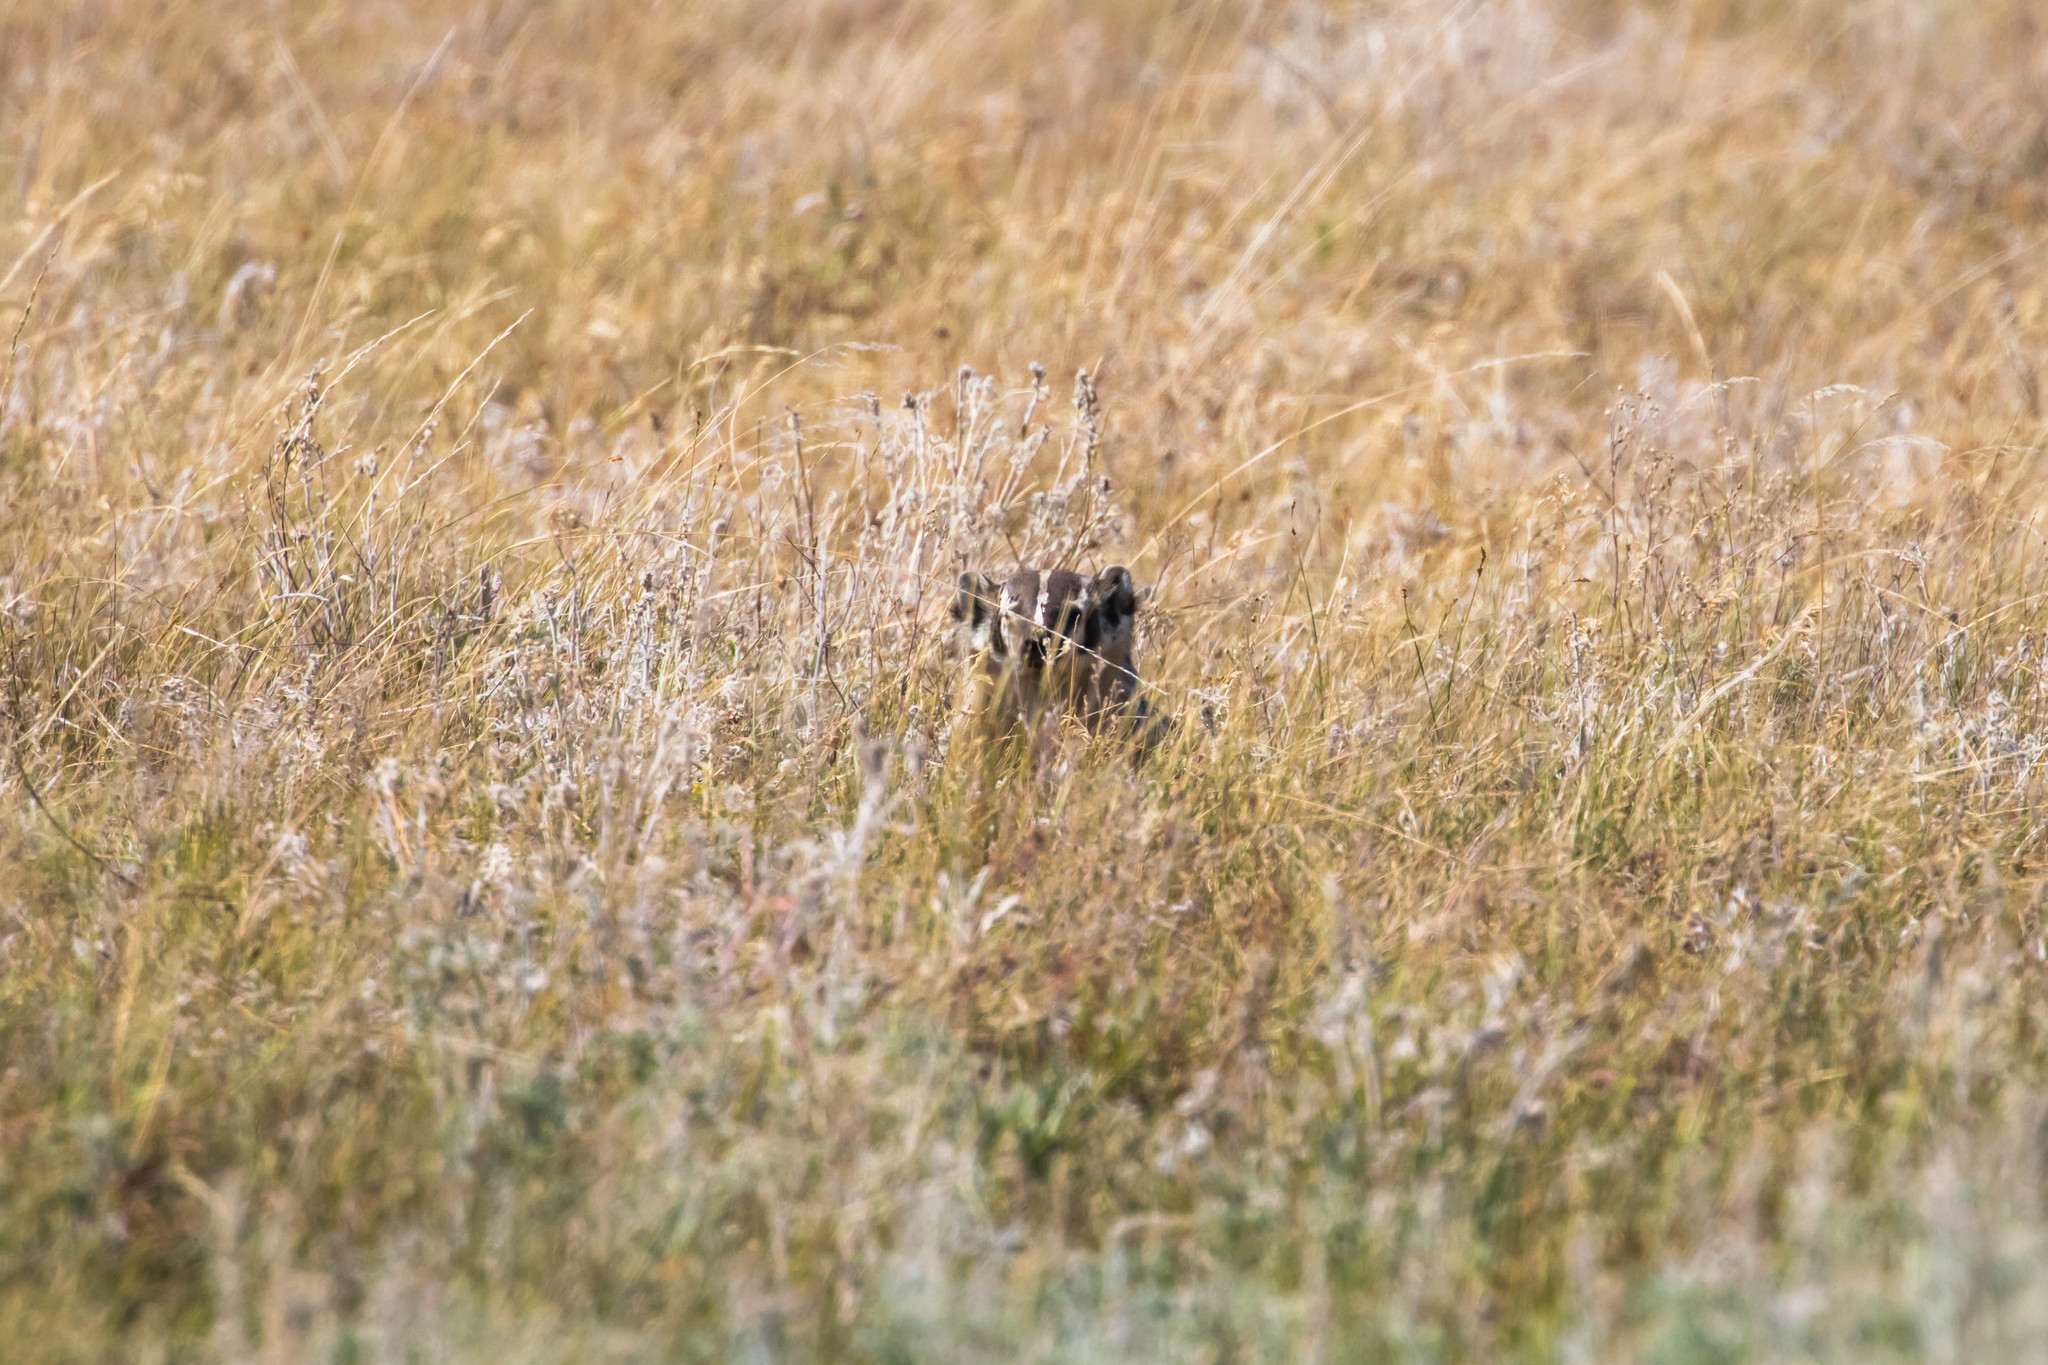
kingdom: Animalia
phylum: Chordata
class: Mammalia
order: Carnivora
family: Mustelidae
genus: Taxidea
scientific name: Taxidea taxus
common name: American badger
